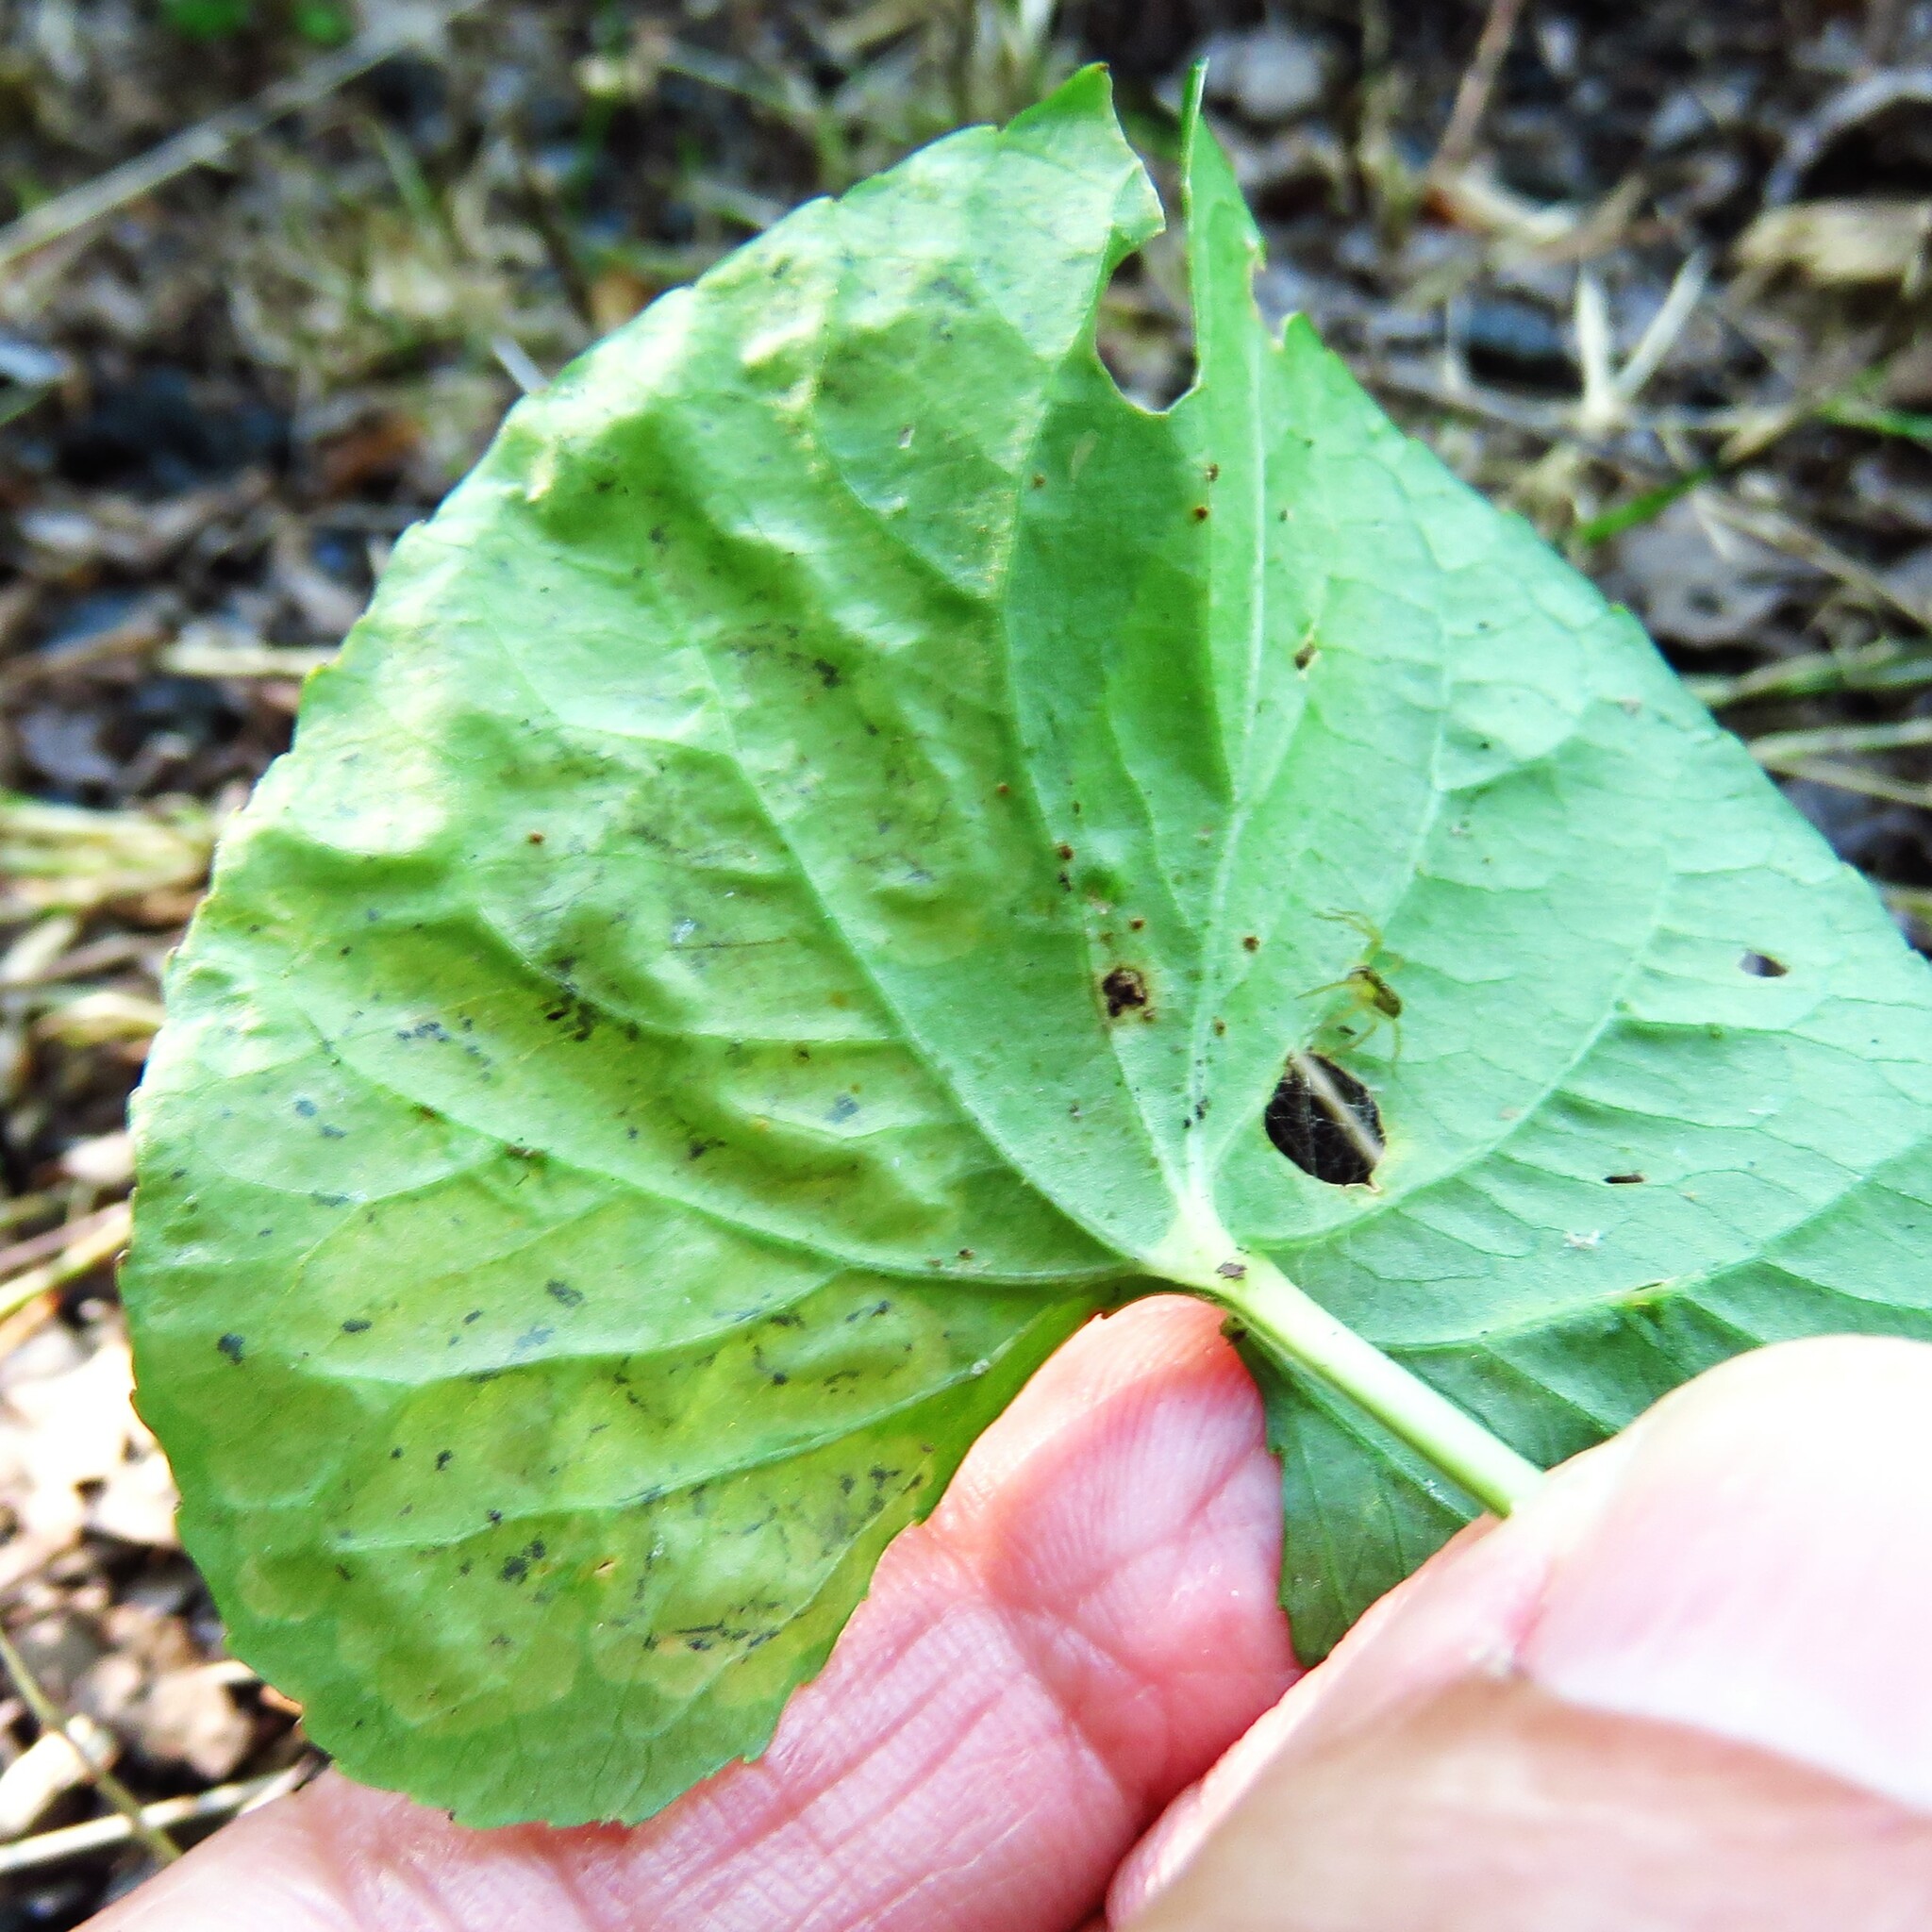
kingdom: Animalia
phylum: Arthropoda
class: Insecta
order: Diptera
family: Agromyzidae
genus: Liriomyza
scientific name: Liriomyza violivora
